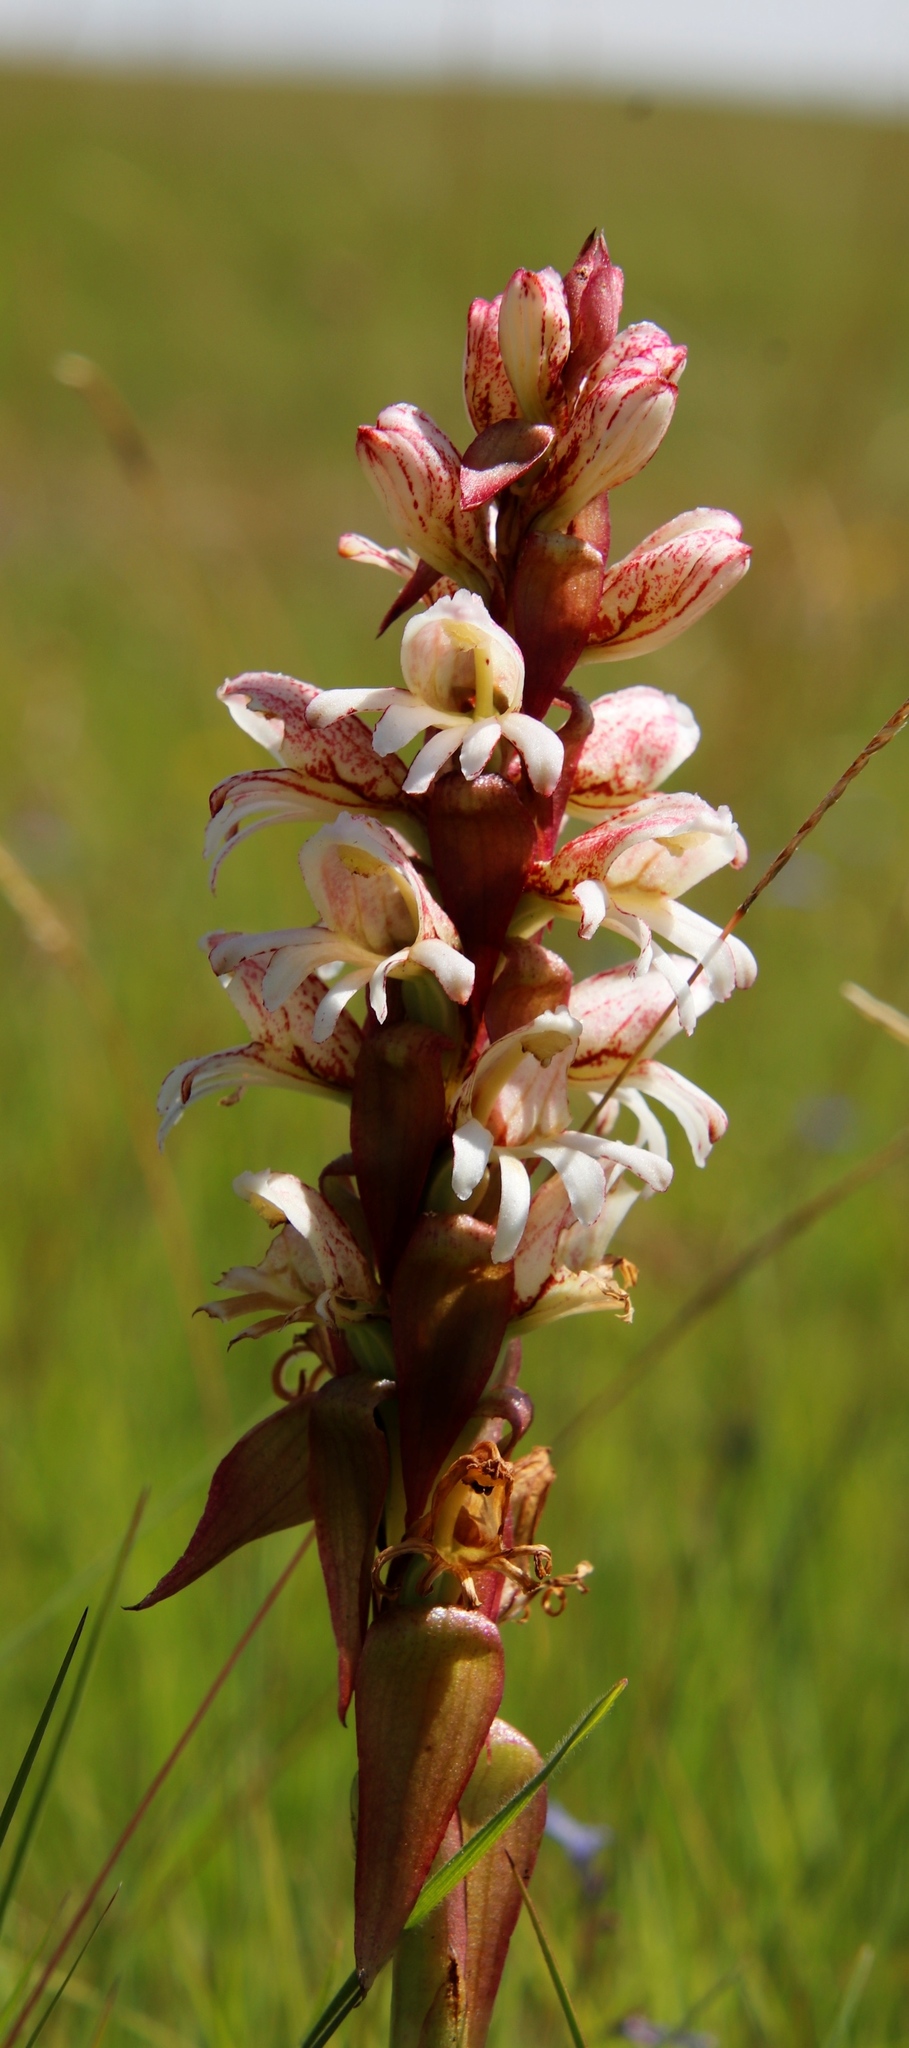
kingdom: Plantae
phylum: Tracheophyta
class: Liliopsida
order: Asparagales
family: Orchidaceae
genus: Satyrium
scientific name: Satyrium sphaerocarpum
